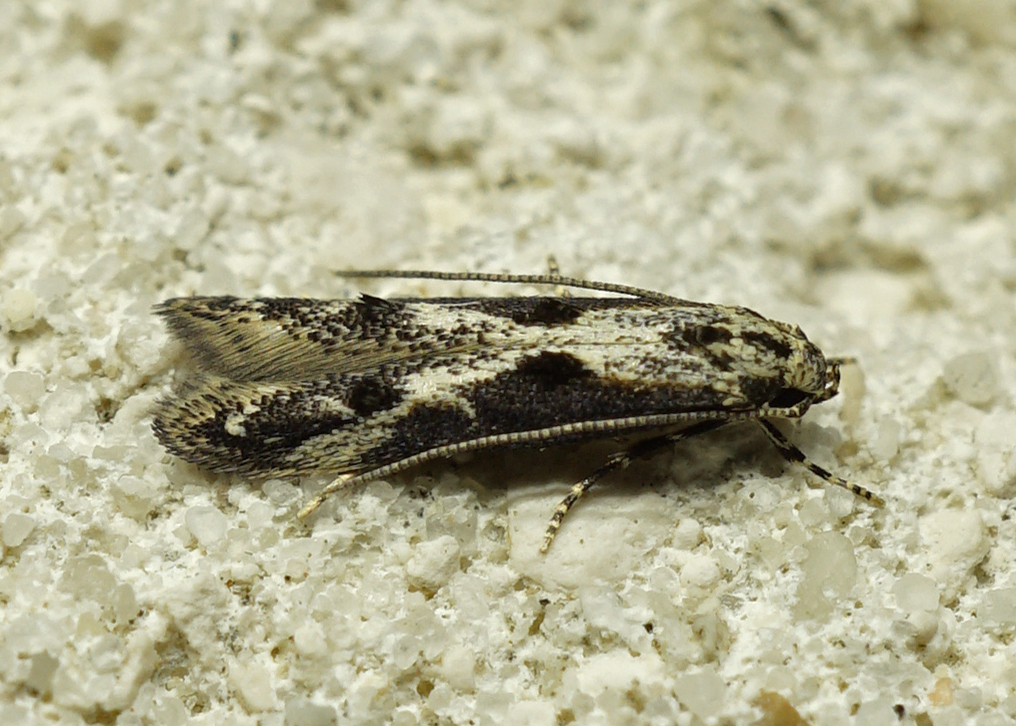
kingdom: Animalia
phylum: Arthropoda
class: Insecta
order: Lepidoptera
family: Elachistidae
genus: Blastodacna
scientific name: Blastodacna hellerella
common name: Hawthorn cosmet
